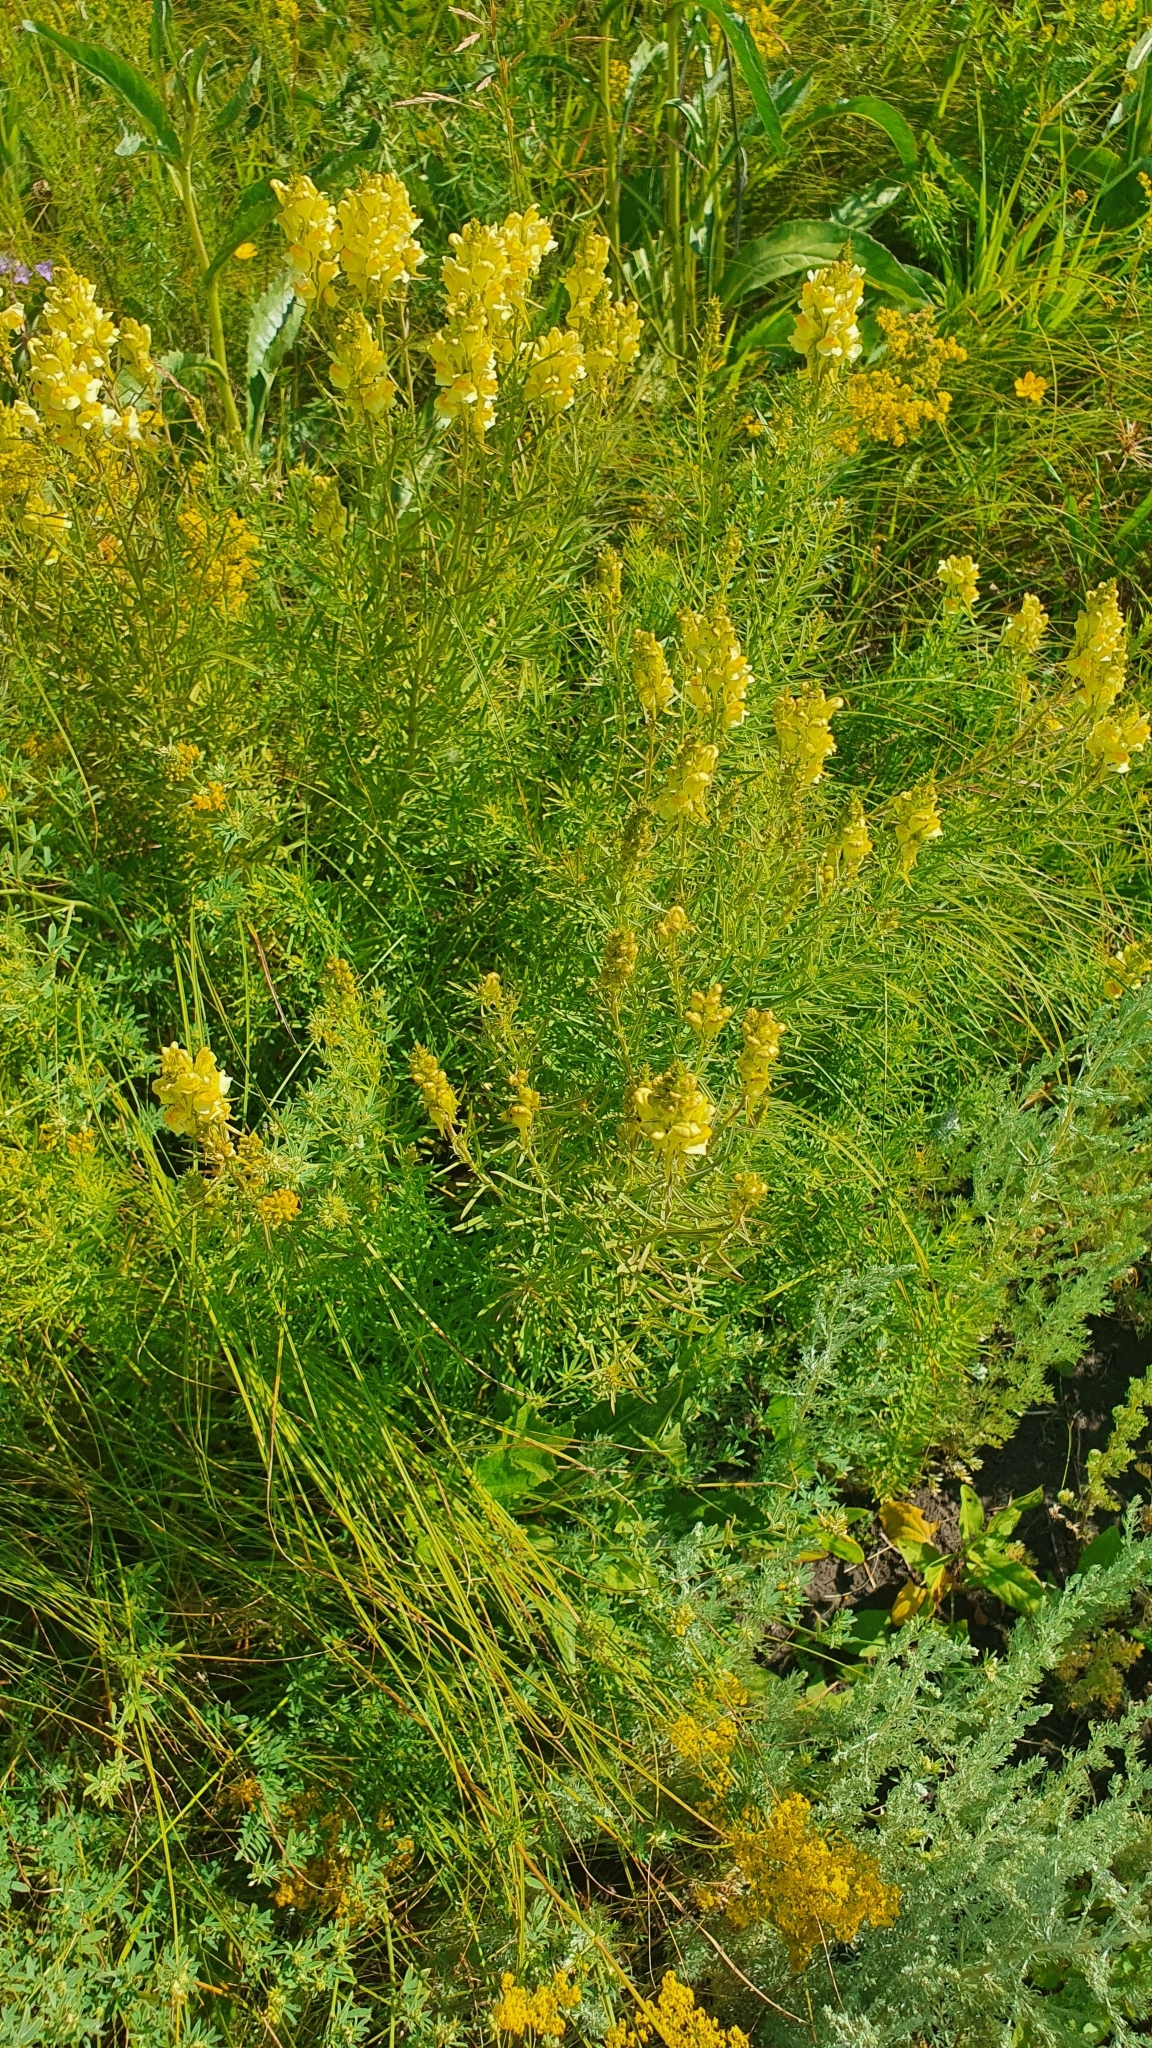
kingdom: Plantae
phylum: Tracheophyta
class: Magnoliopsida
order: Lamiales
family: Plantaginaceae
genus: Linaria
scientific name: Linaria vulgaris
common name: Butter and eggs
